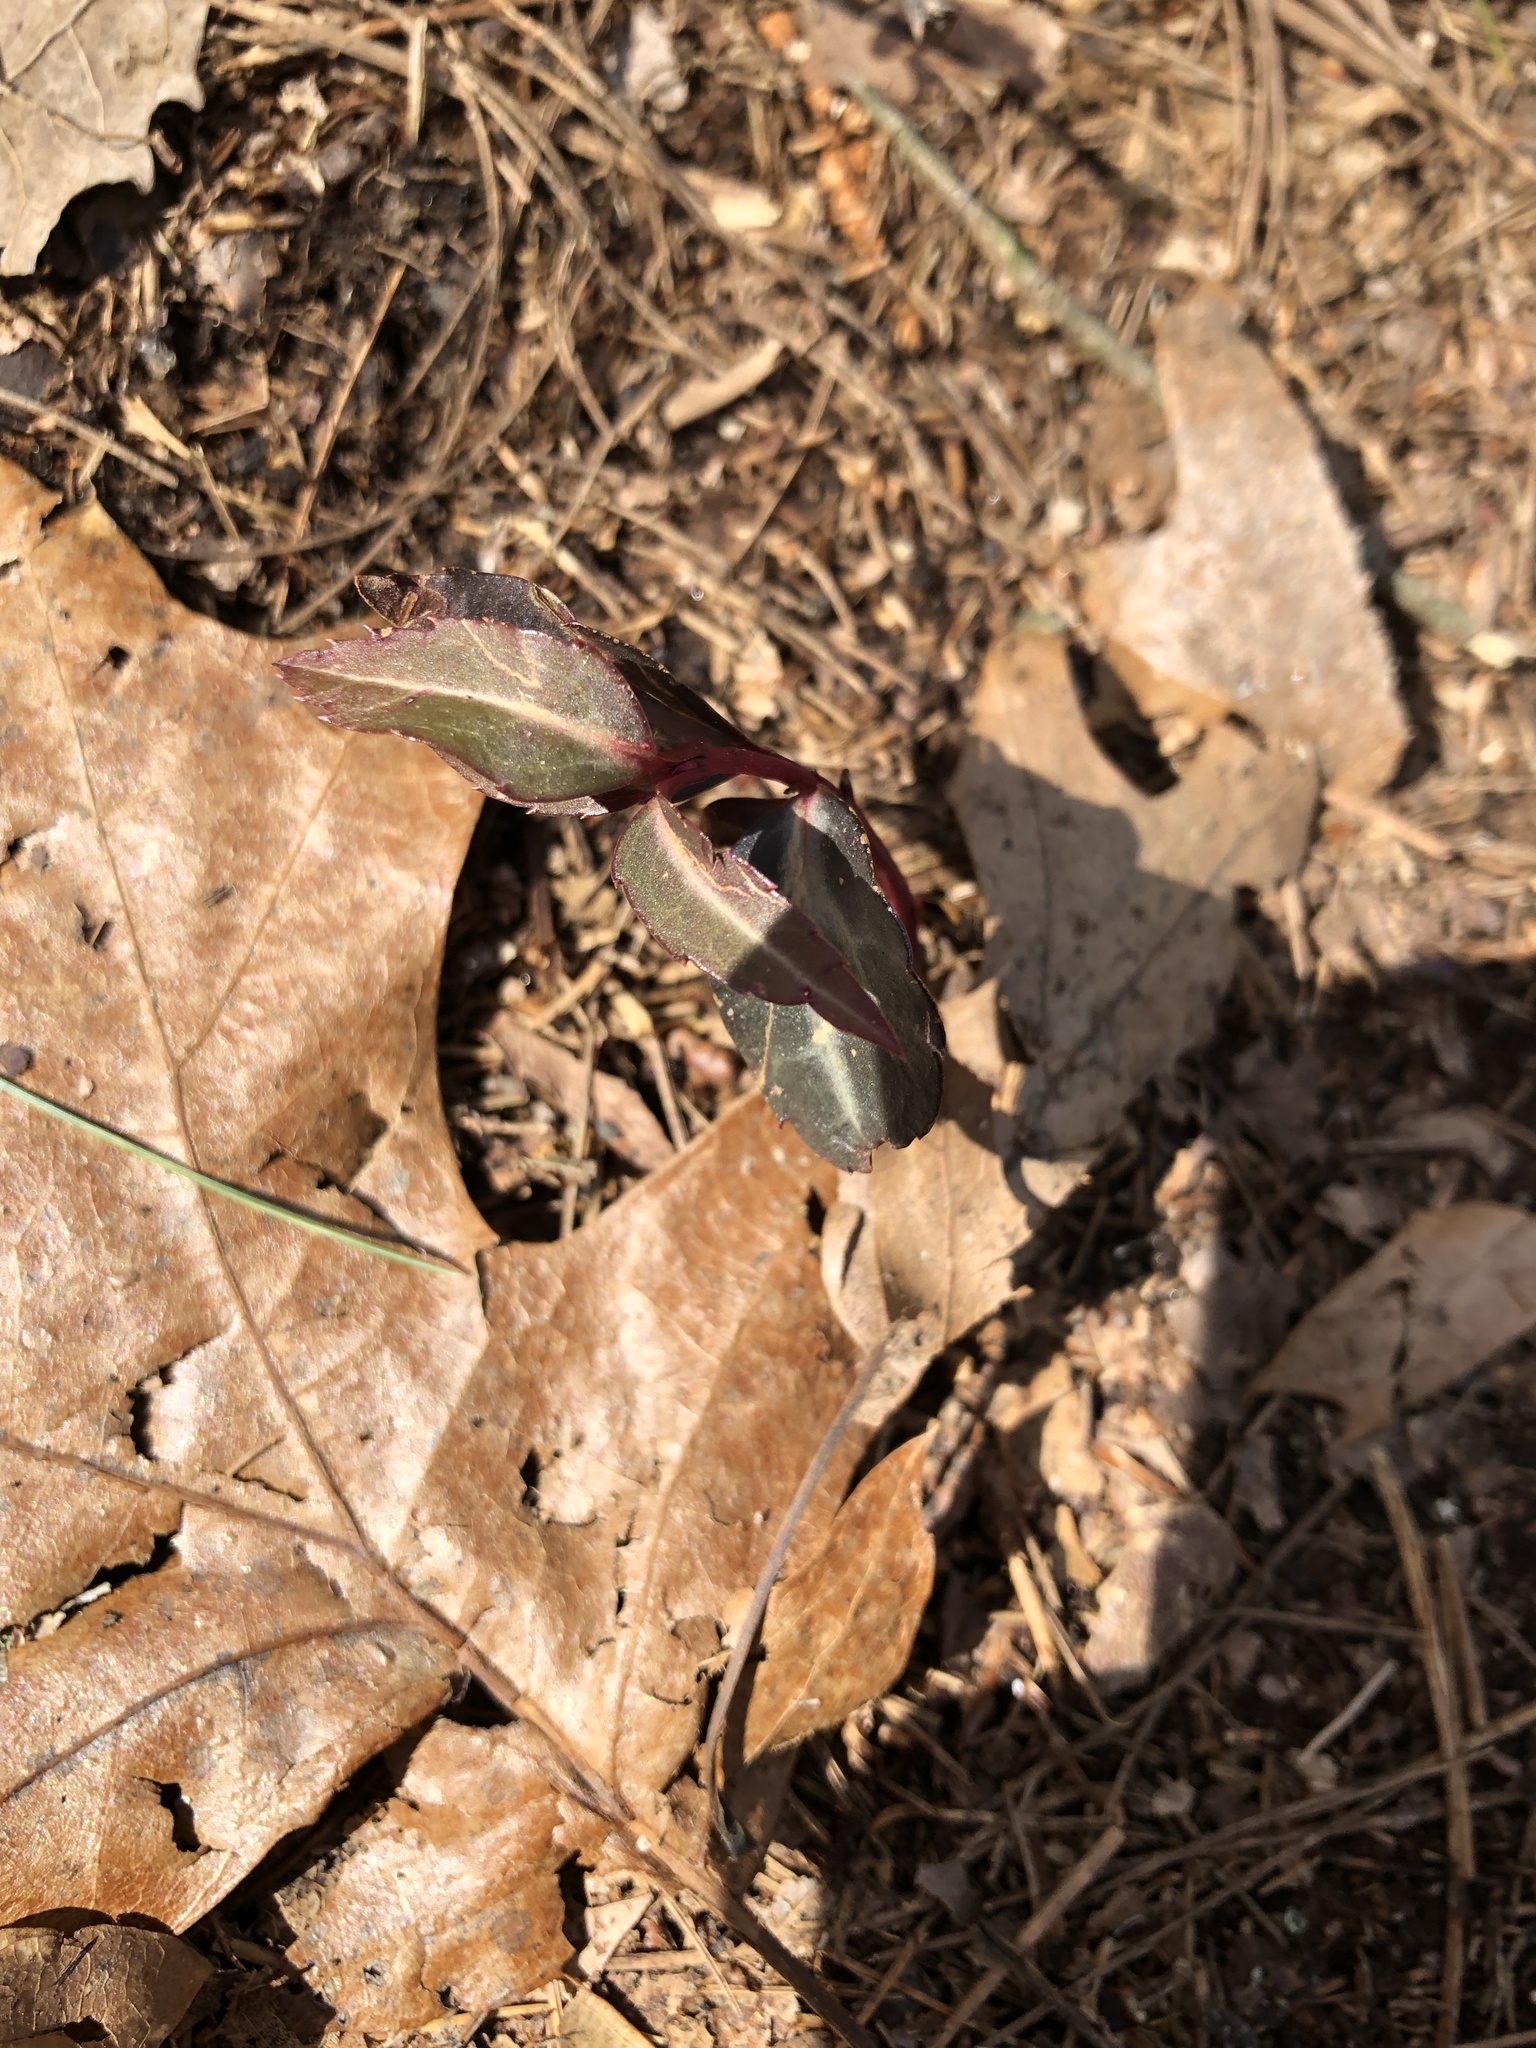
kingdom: Plantae
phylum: Tracheophyta
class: Magnoliopsida
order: Ericales
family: Ericaceae
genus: Chimaphila
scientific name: Chimaphila maculata
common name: Spotted pipsissewa
